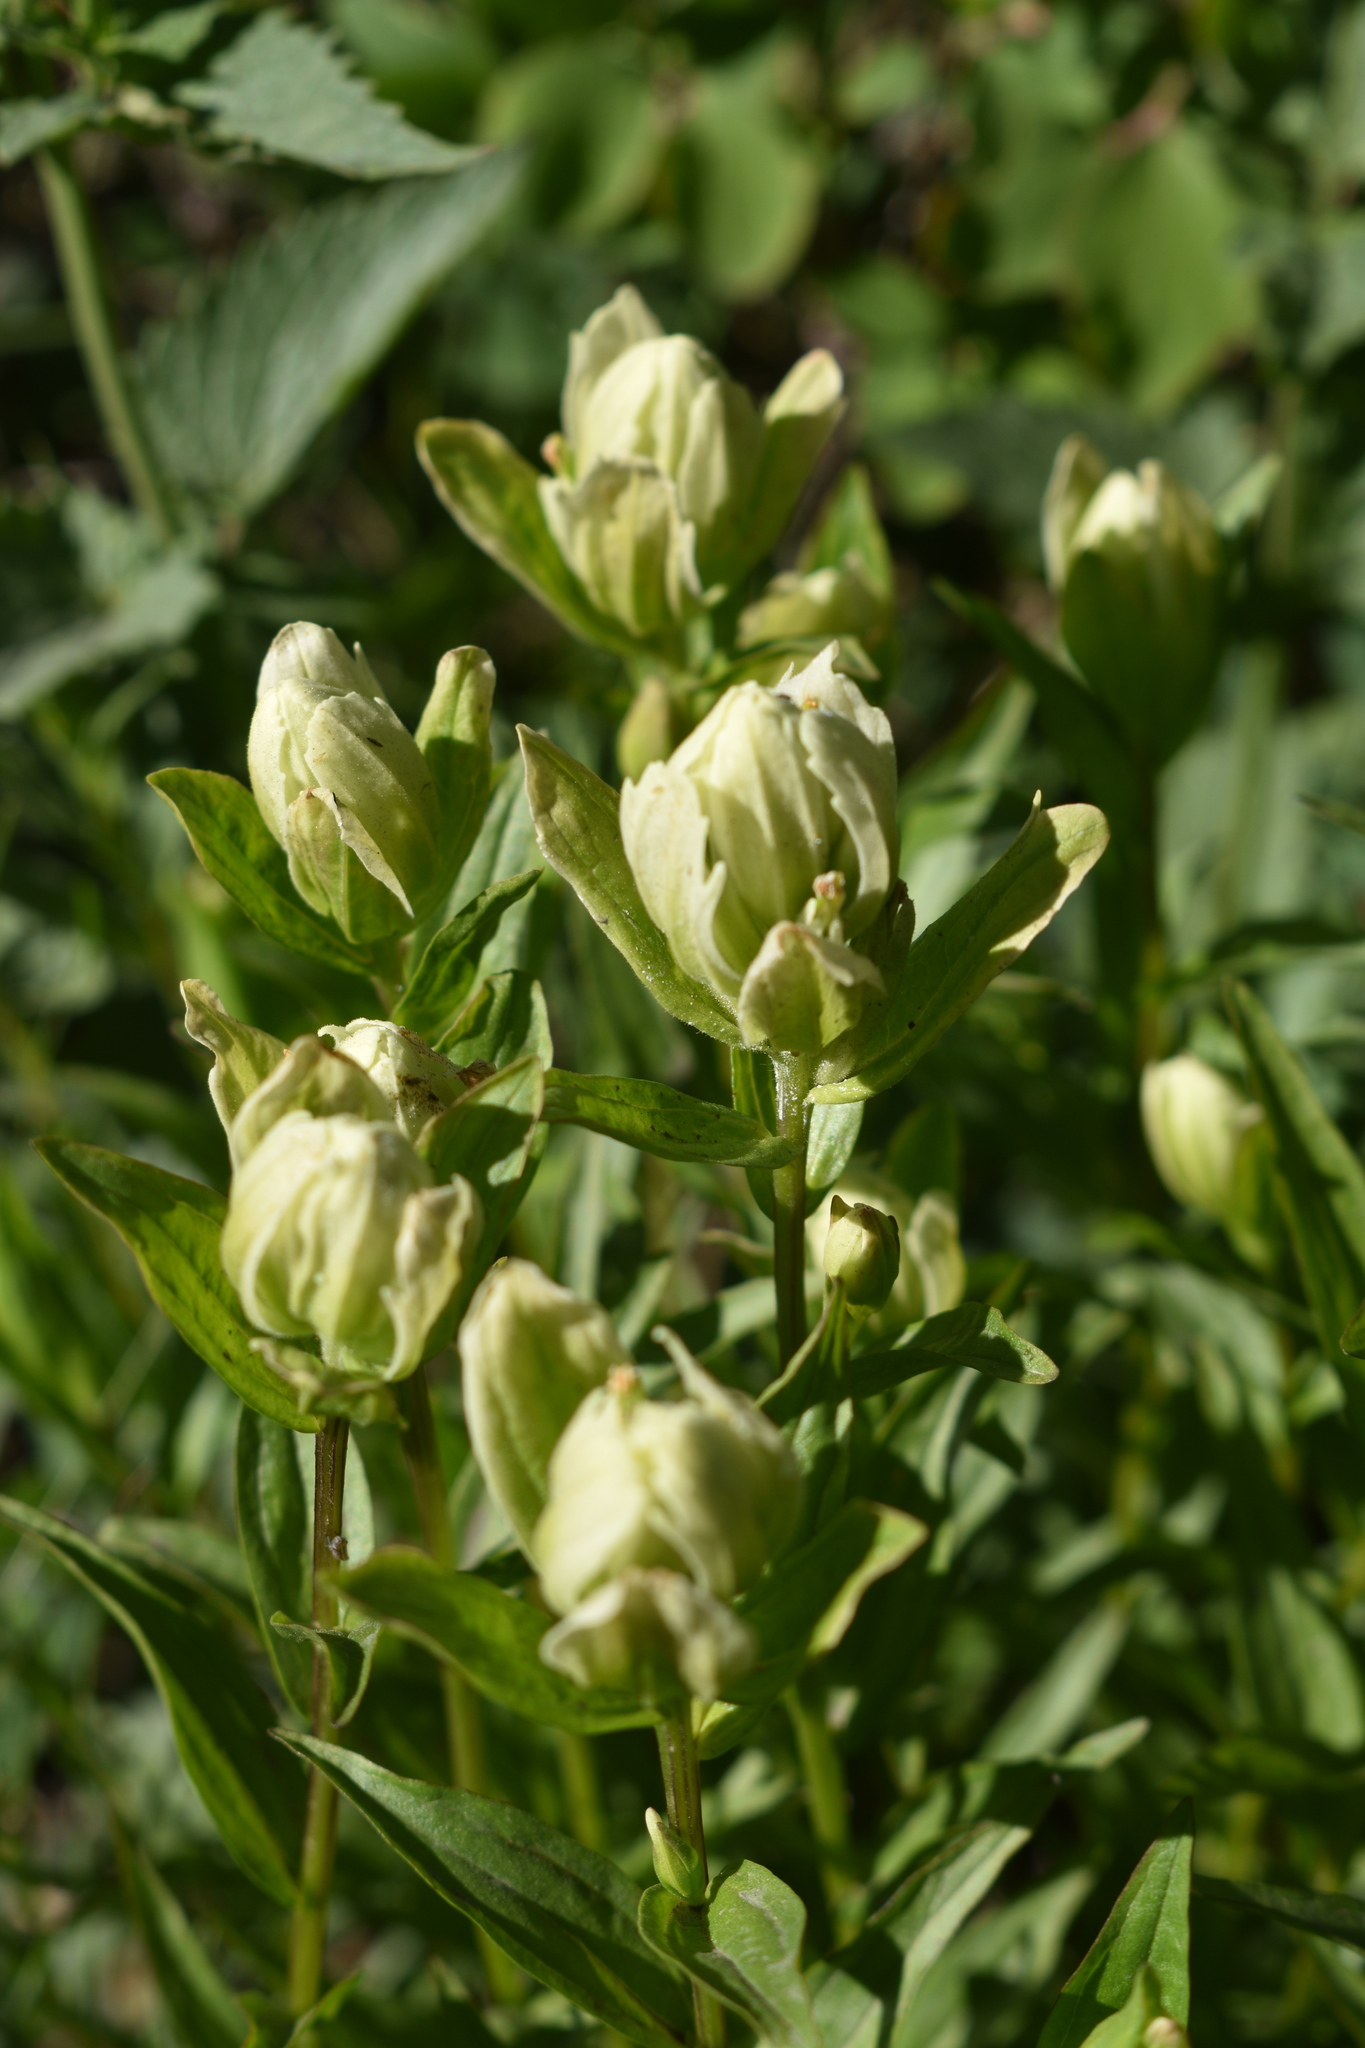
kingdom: Plantae
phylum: Tracheophyta
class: Magnoliopsida
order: Lamiales
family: Orobanchaceae
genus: Castilleja
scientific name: Castilleja septentrionalis
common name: Northeastern paintbrush
